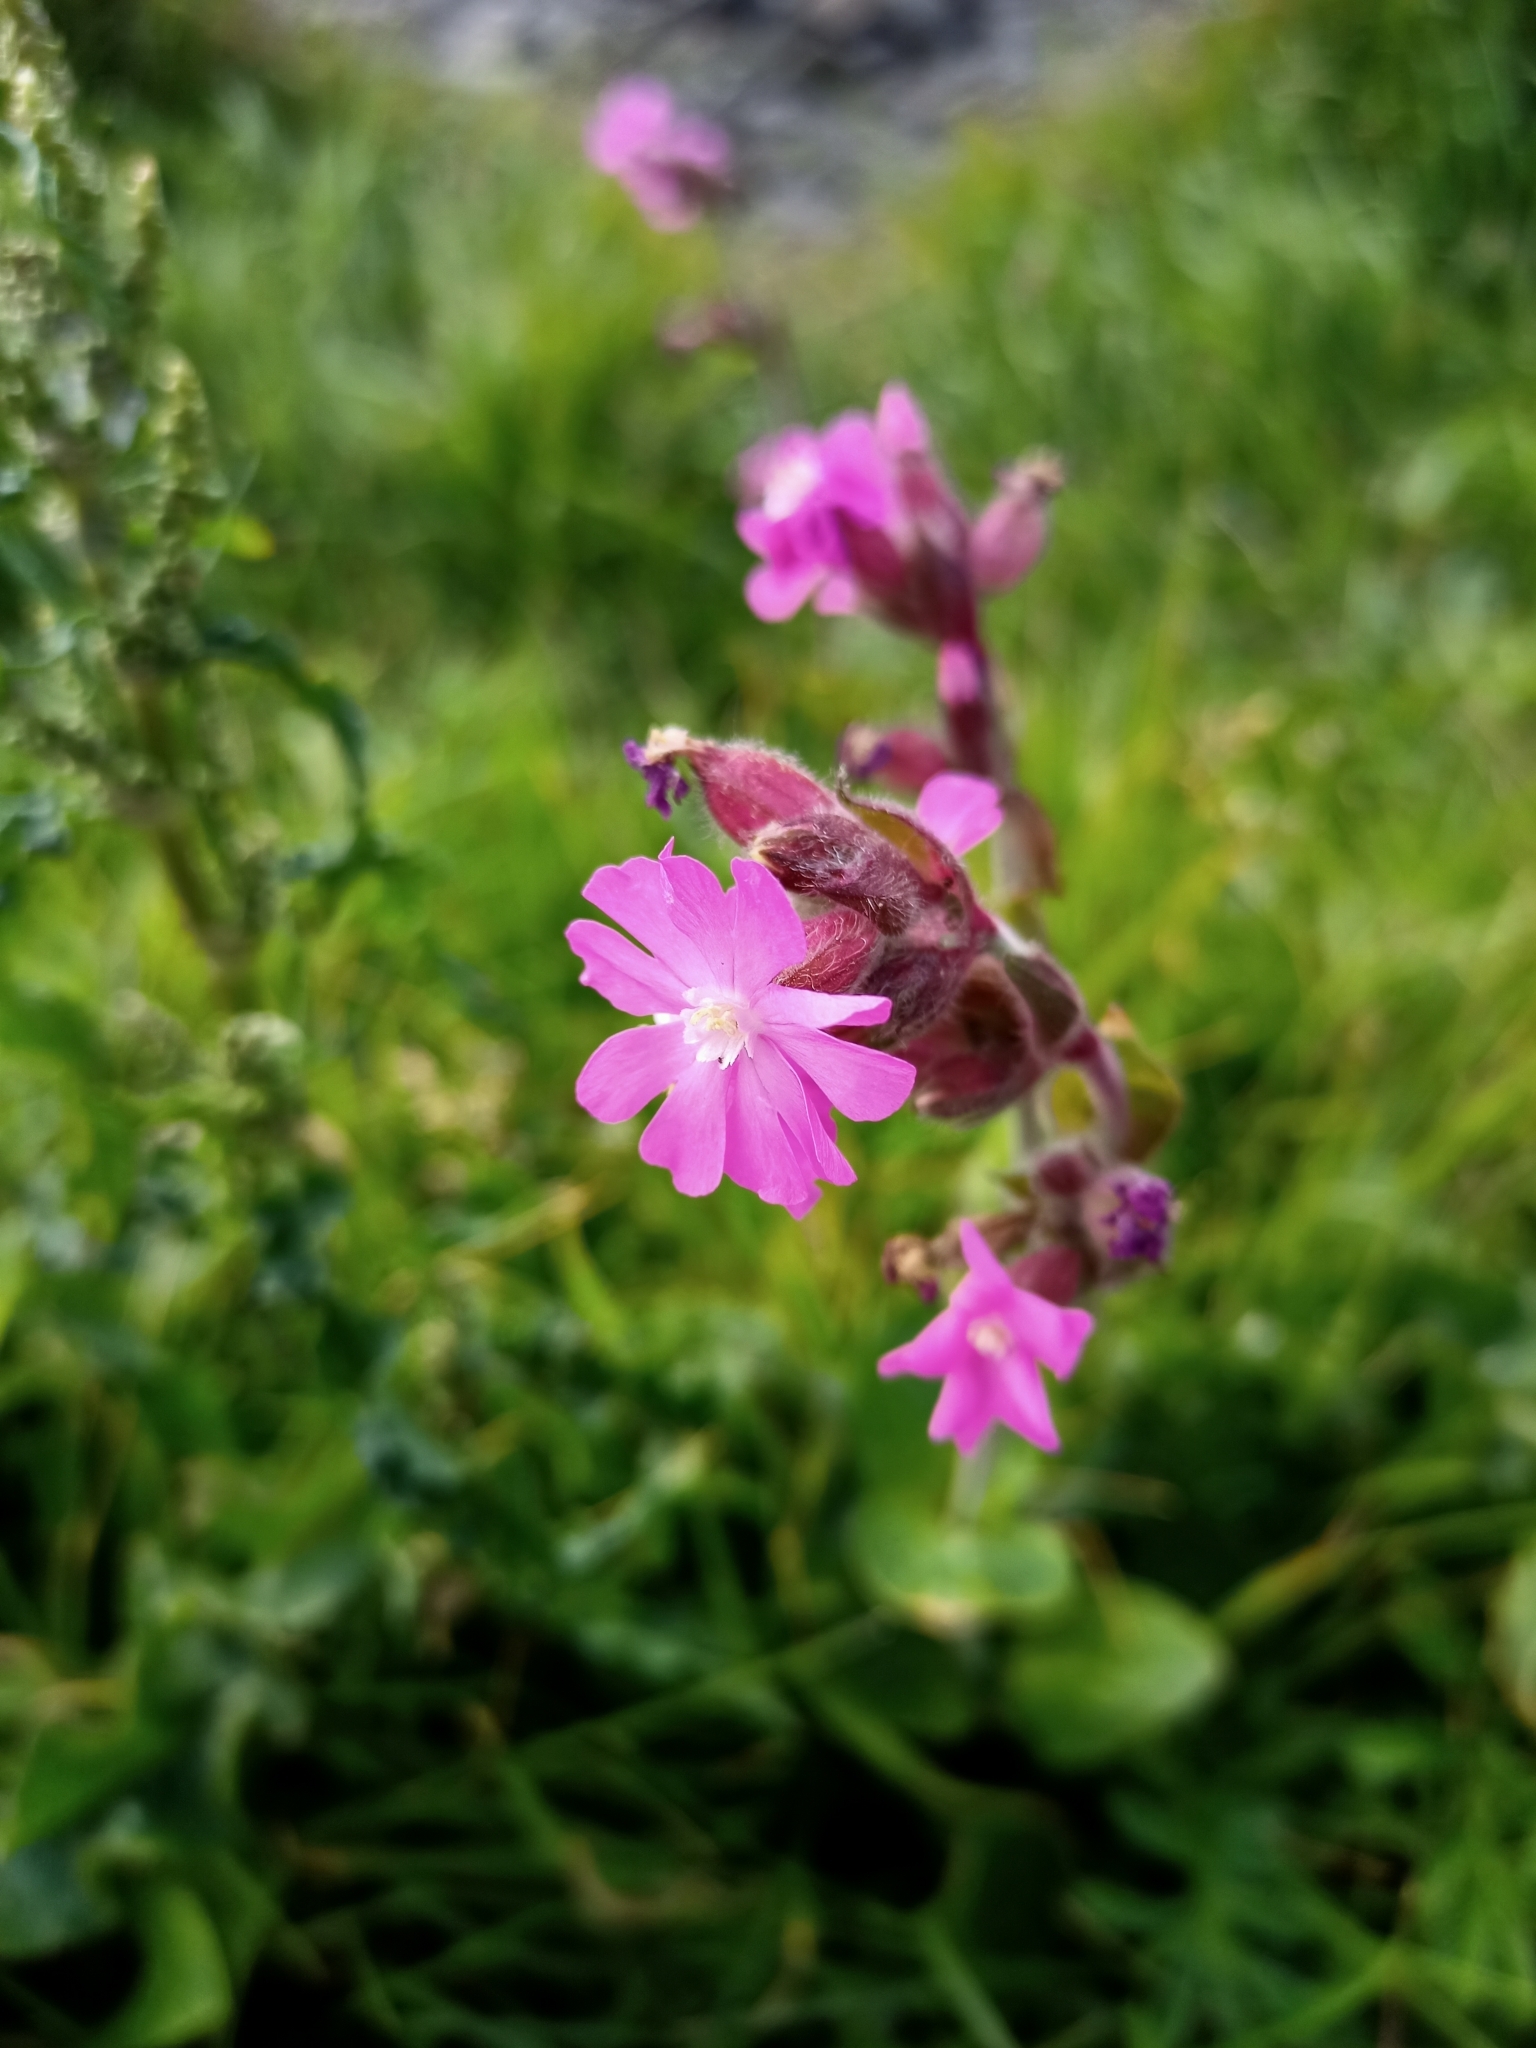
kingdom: Plantae
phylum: Tracheophyta
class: Magnoliopsida
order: Caryophyllales
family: Caryophyllaceae
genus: Silene
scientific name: Silene dioica
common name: Red campion
